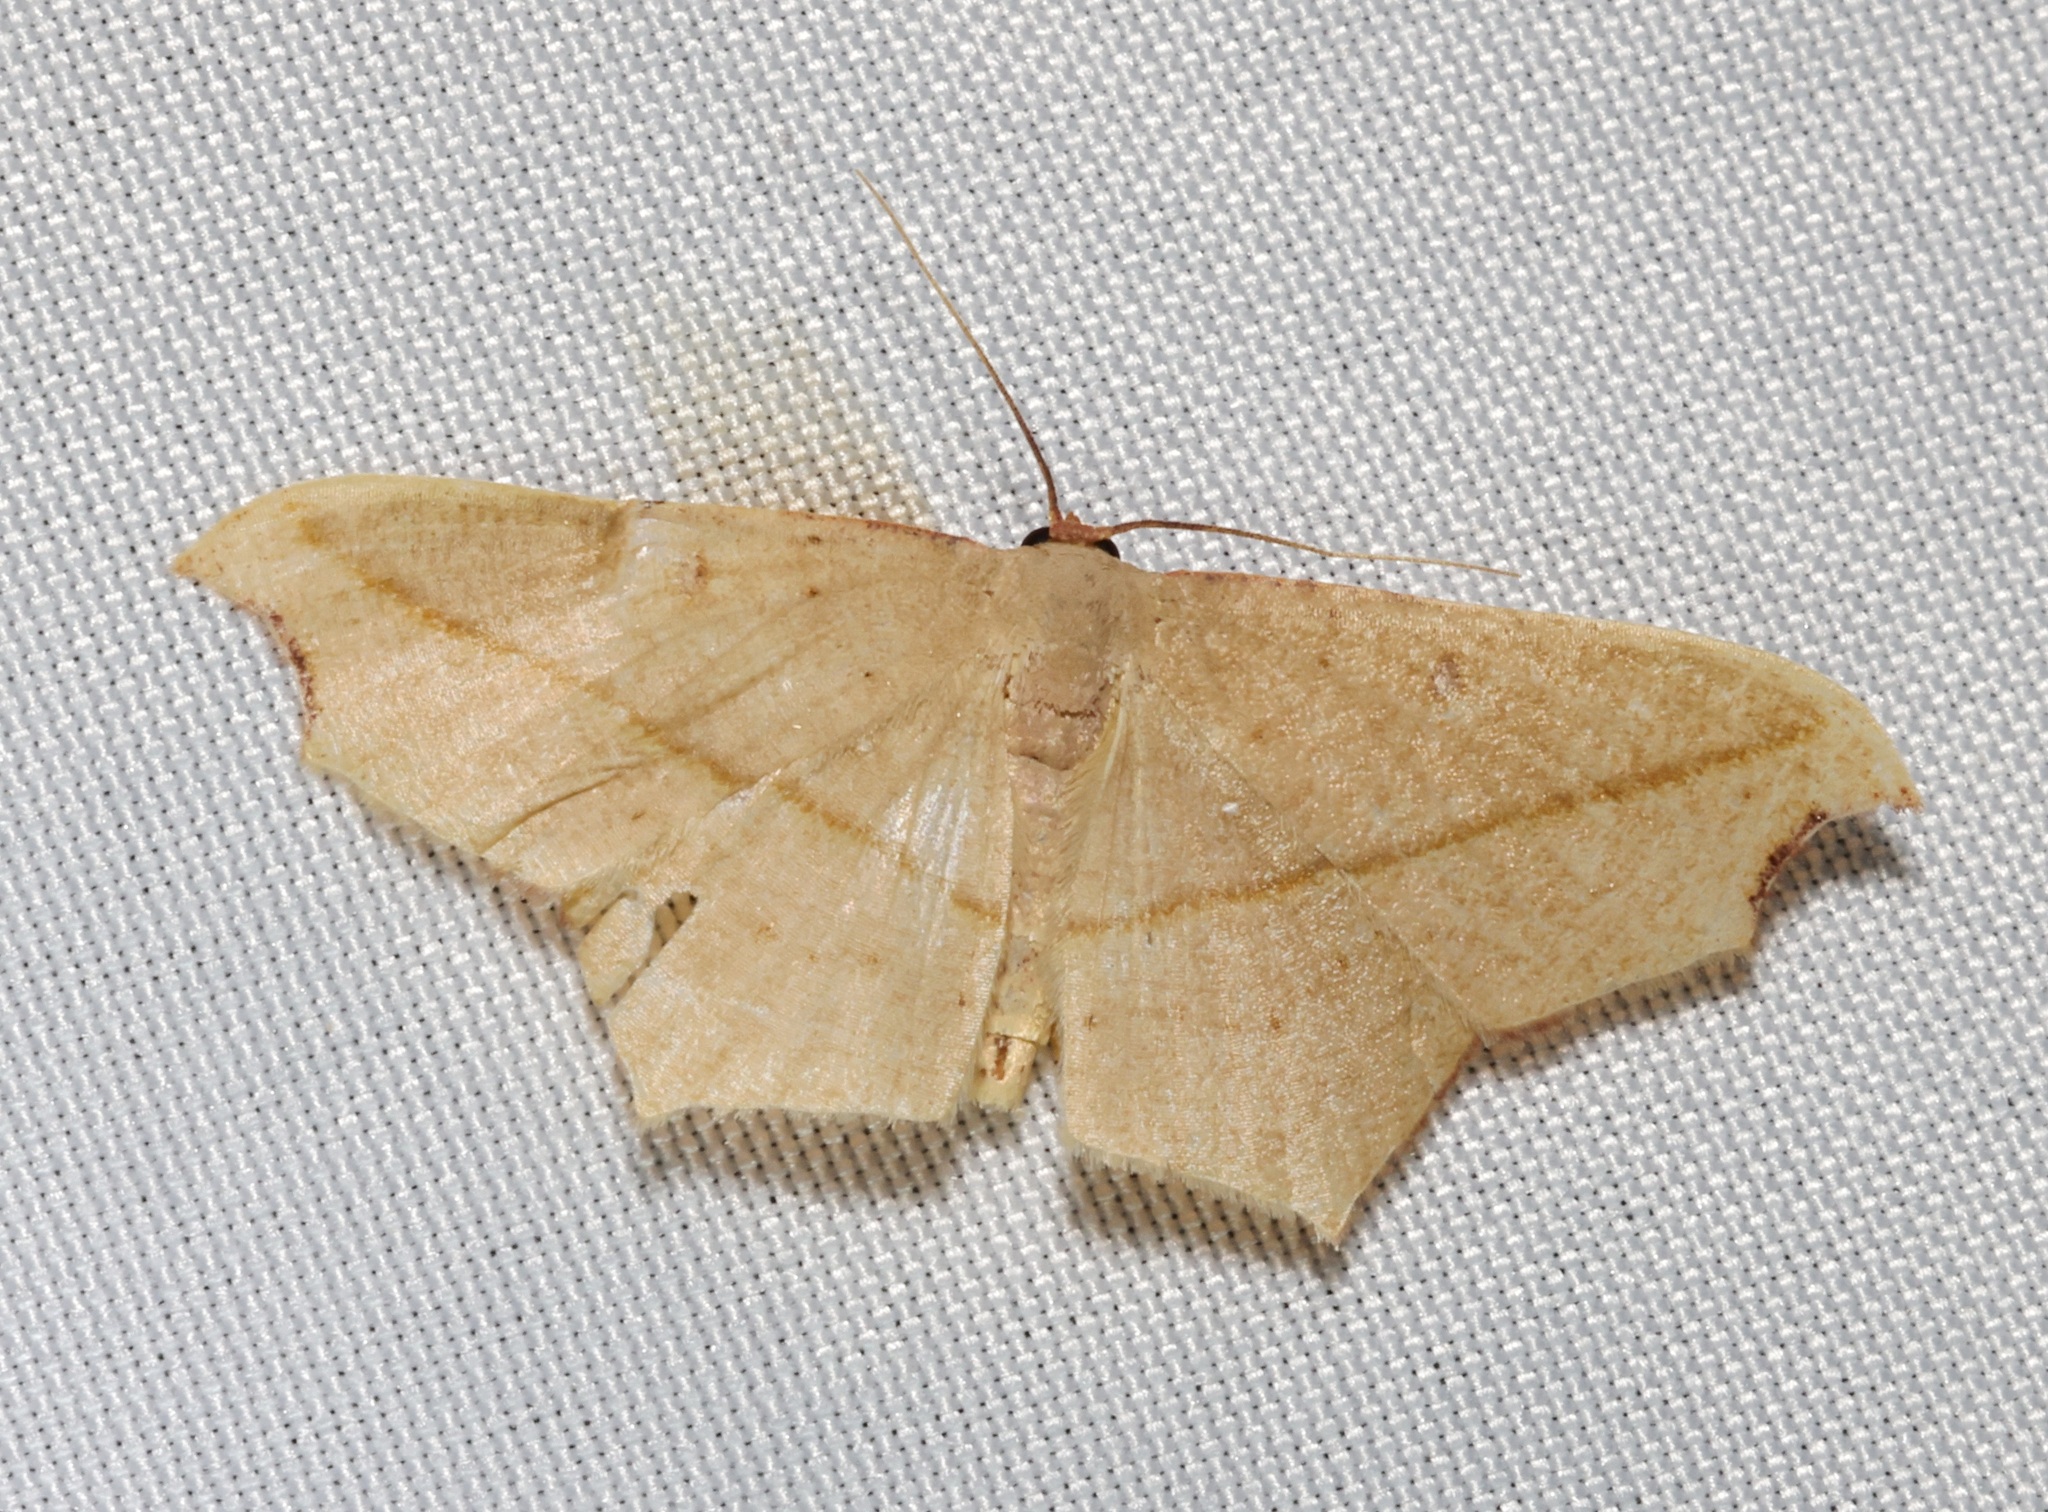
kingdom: Animalia
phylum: Arthropoda
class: Insecta
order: Lepidoptera
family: Geometridae
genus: Traminda
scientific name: Traminda aventiaria
